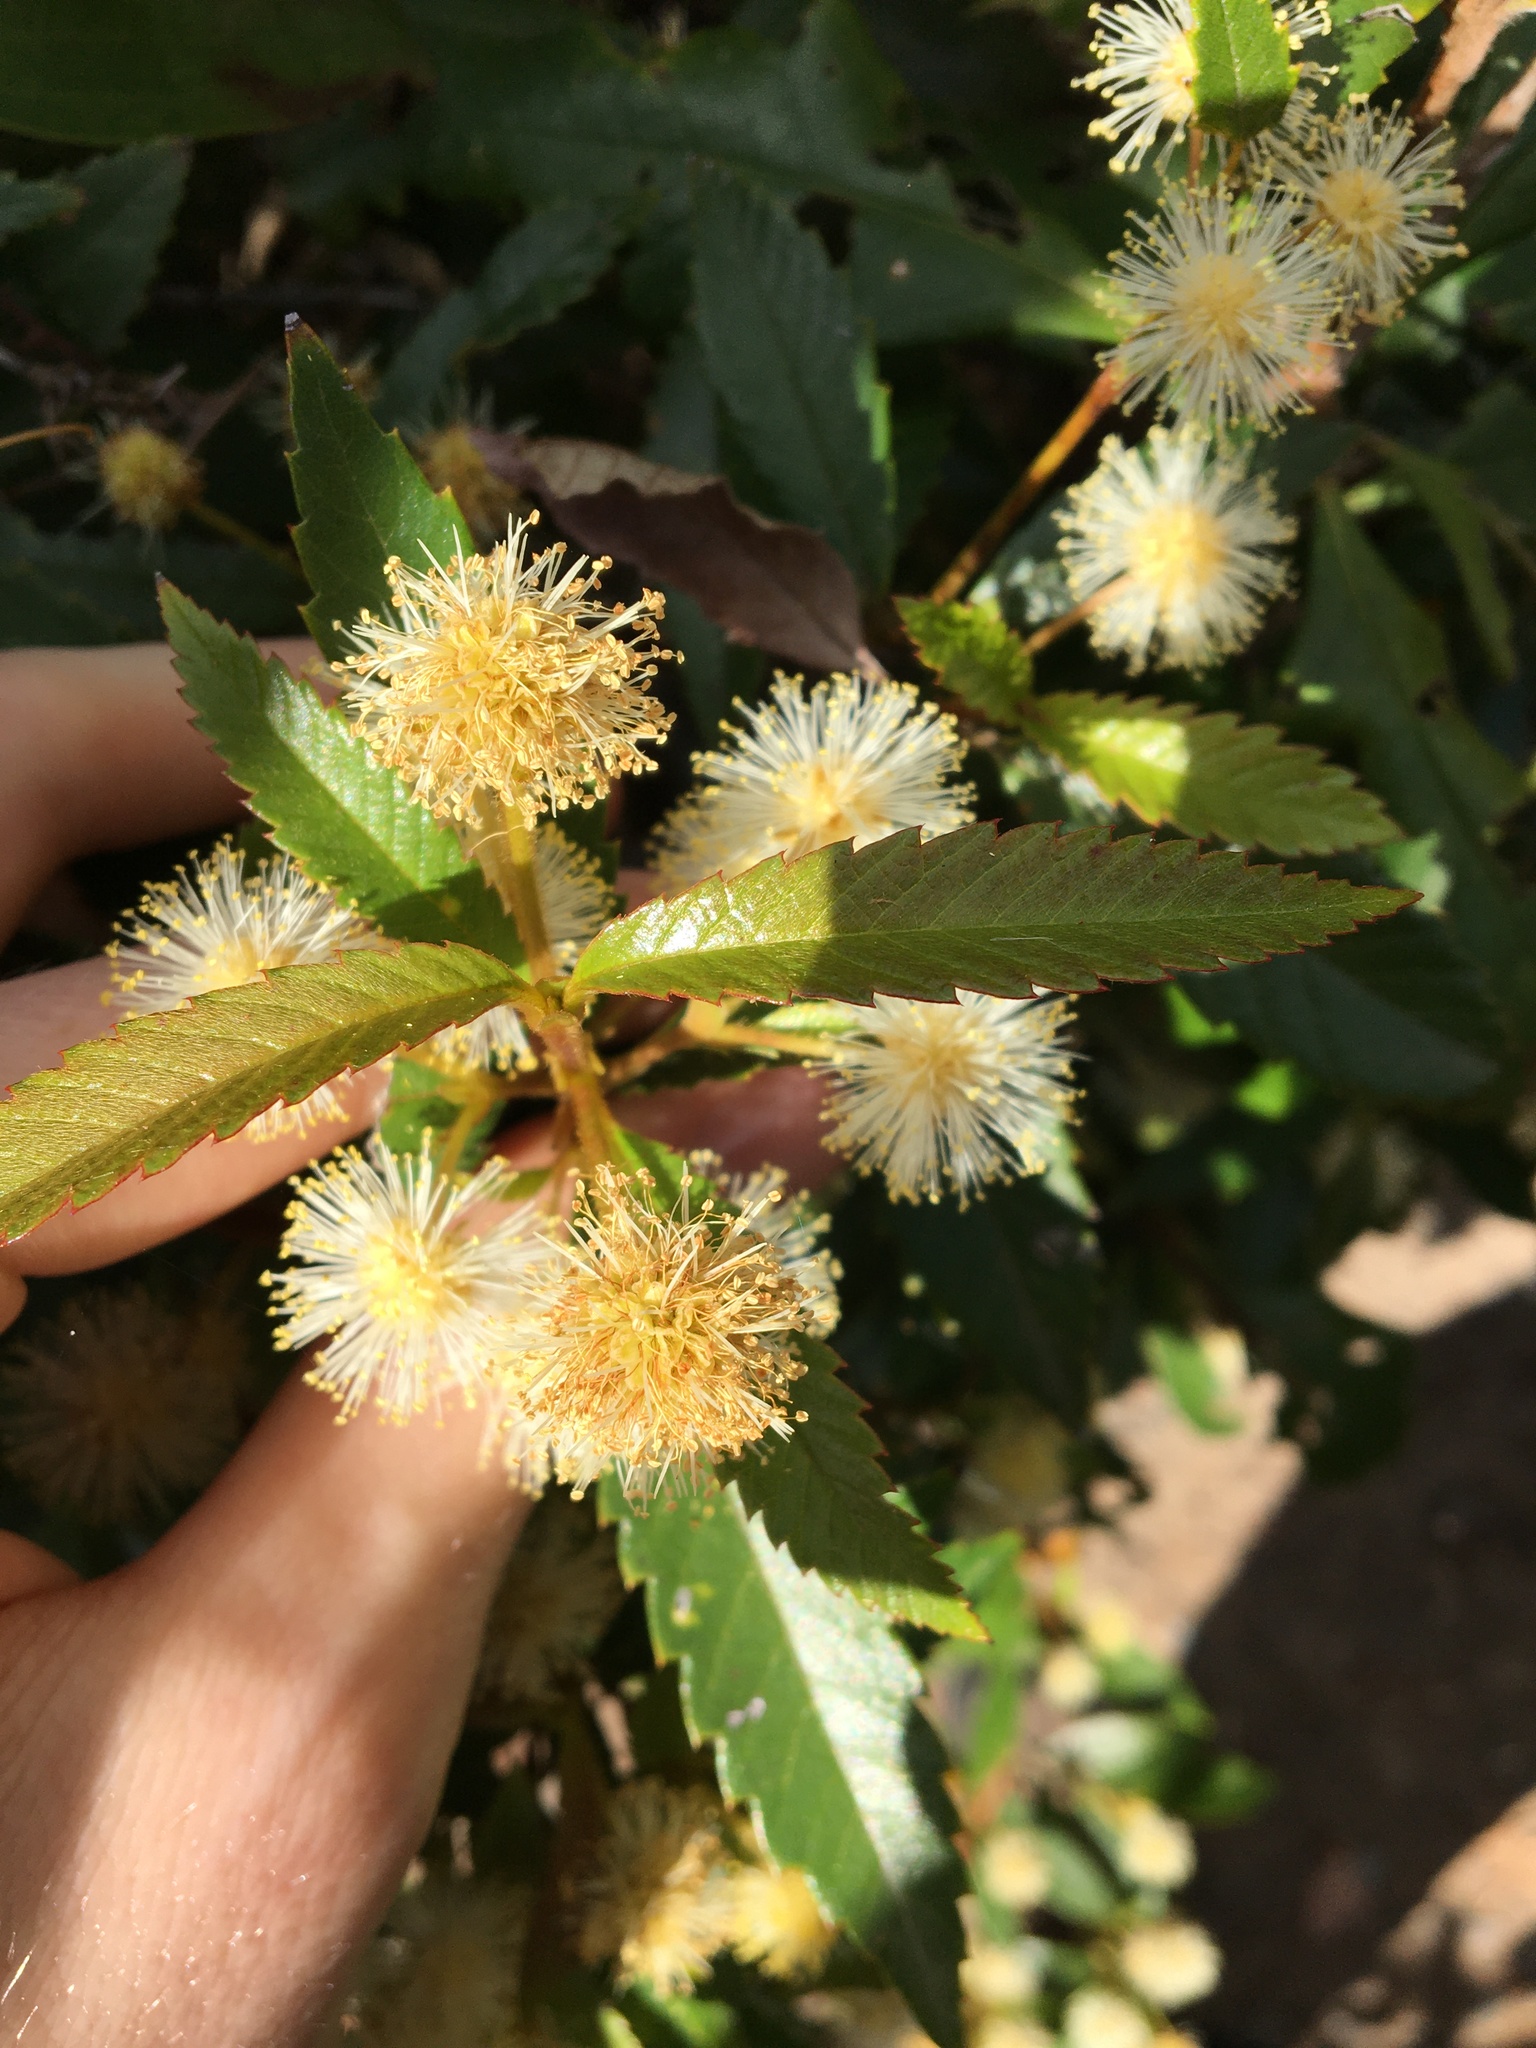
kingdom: Plantae
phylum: Tracheophyta
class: Magnoliopsida
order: Oxalidales
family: Cunoniaceae
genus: Callicoma
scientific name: Callicoma serratifolia
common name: Black wattle
